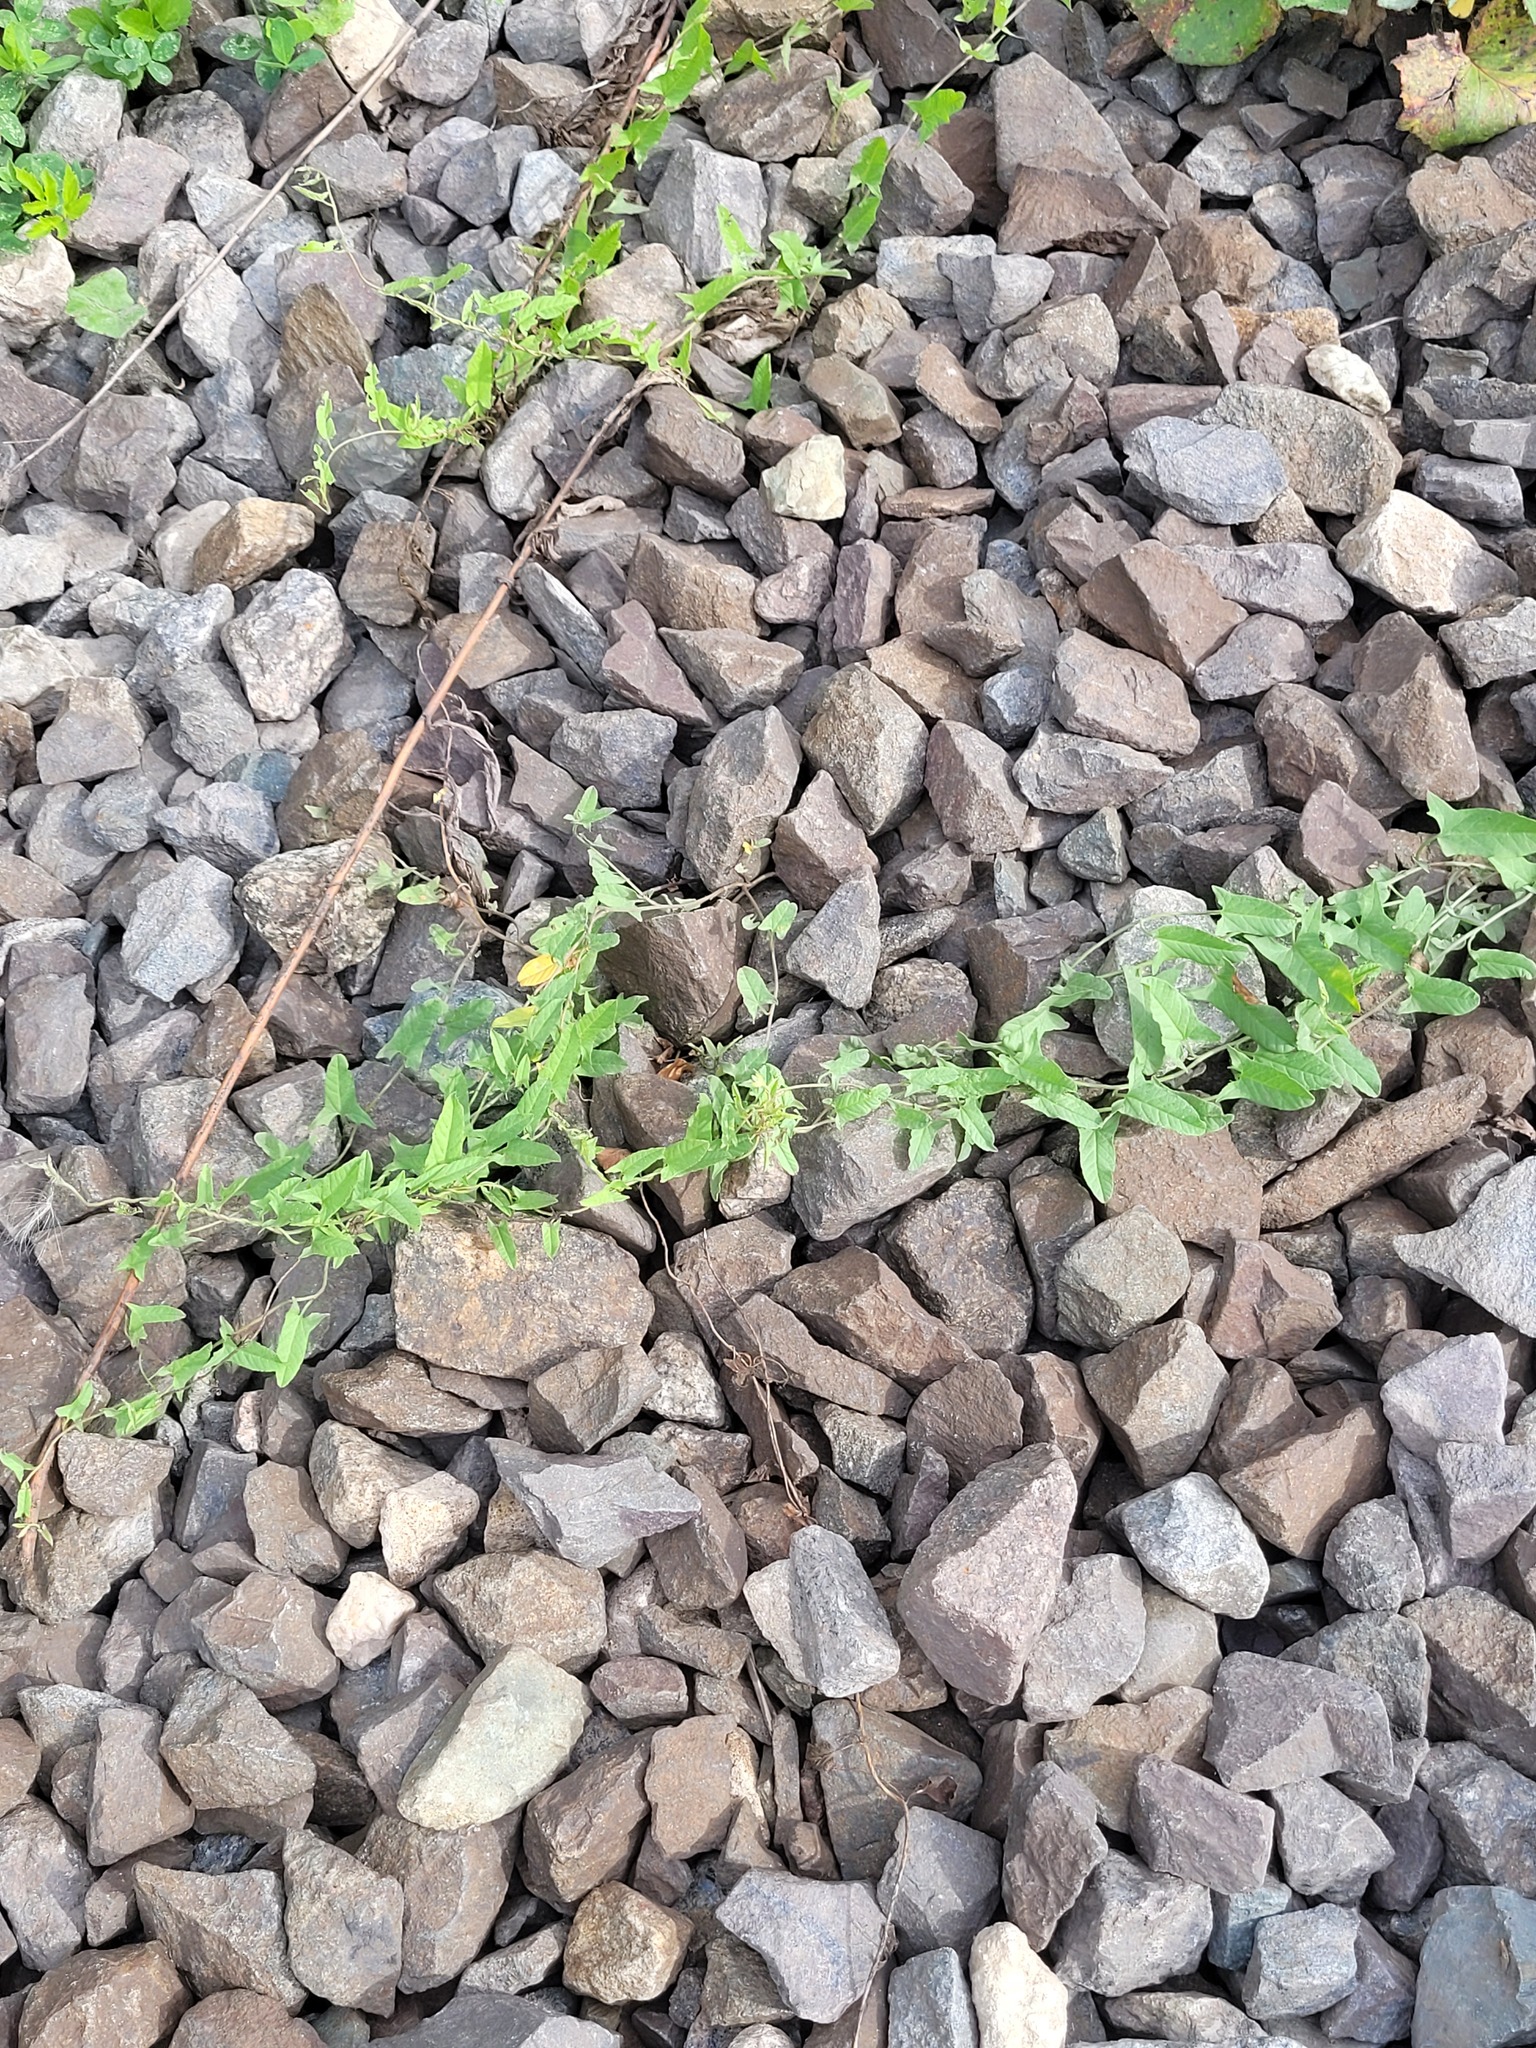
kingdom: Plantae
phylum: Tracheophyta
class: Magnoliopsida
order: Solanales
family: Convolvulaceae
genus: Convolvulus
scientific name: Convolvulus arvensis
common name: Field bindweed
